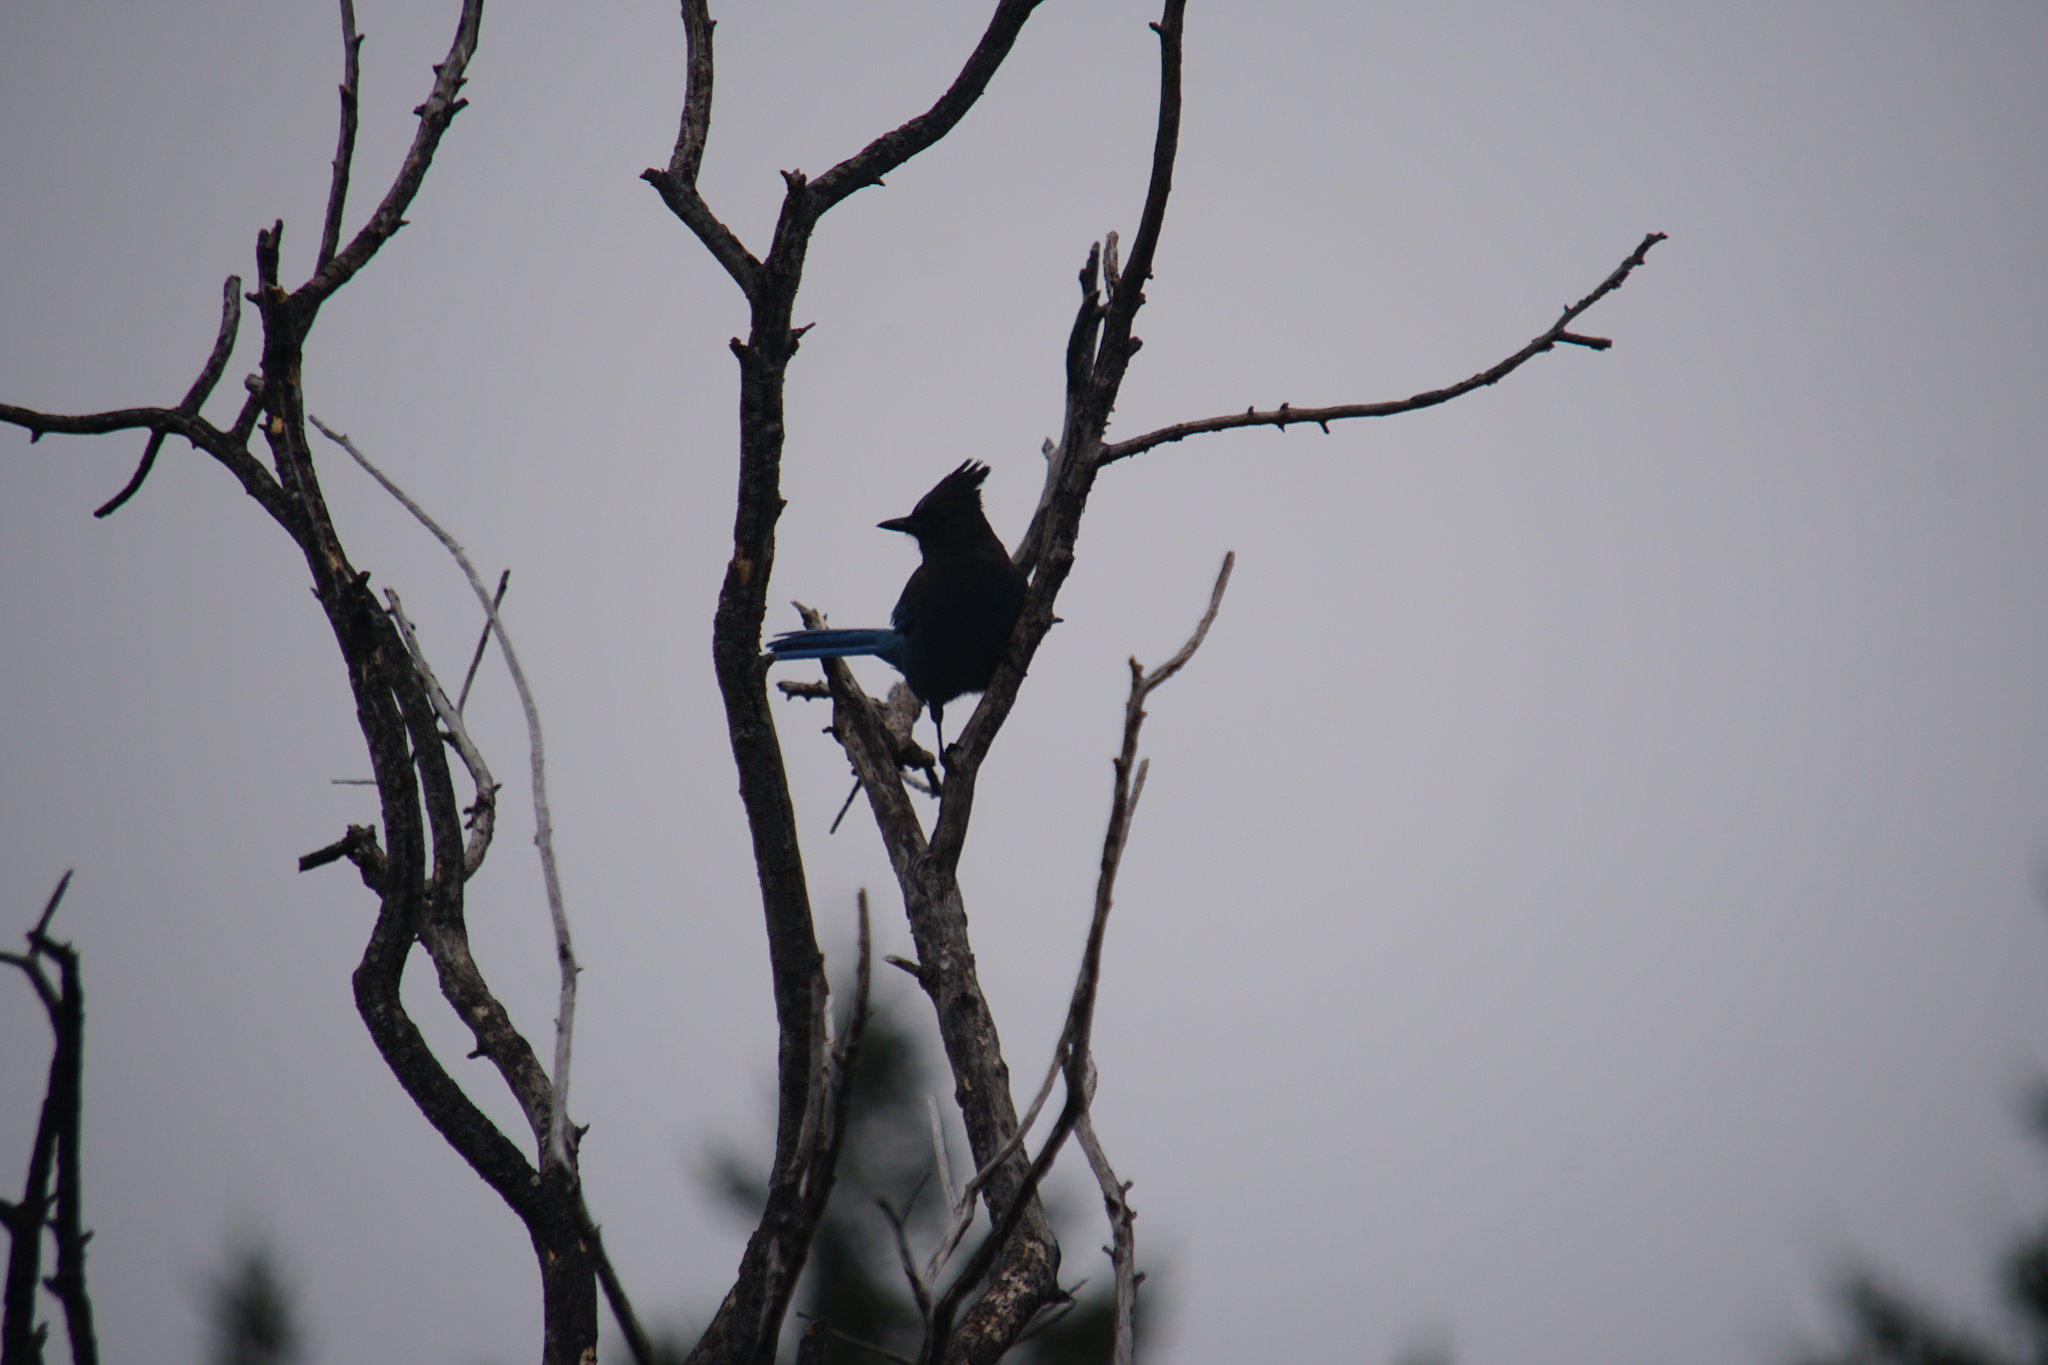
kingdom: Animalia
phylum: Chordata
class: Aves
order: Passeriformes
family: Corvidae
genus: Cyanocitta
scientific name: Cyanocitta stelleri
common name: Steller's jay
